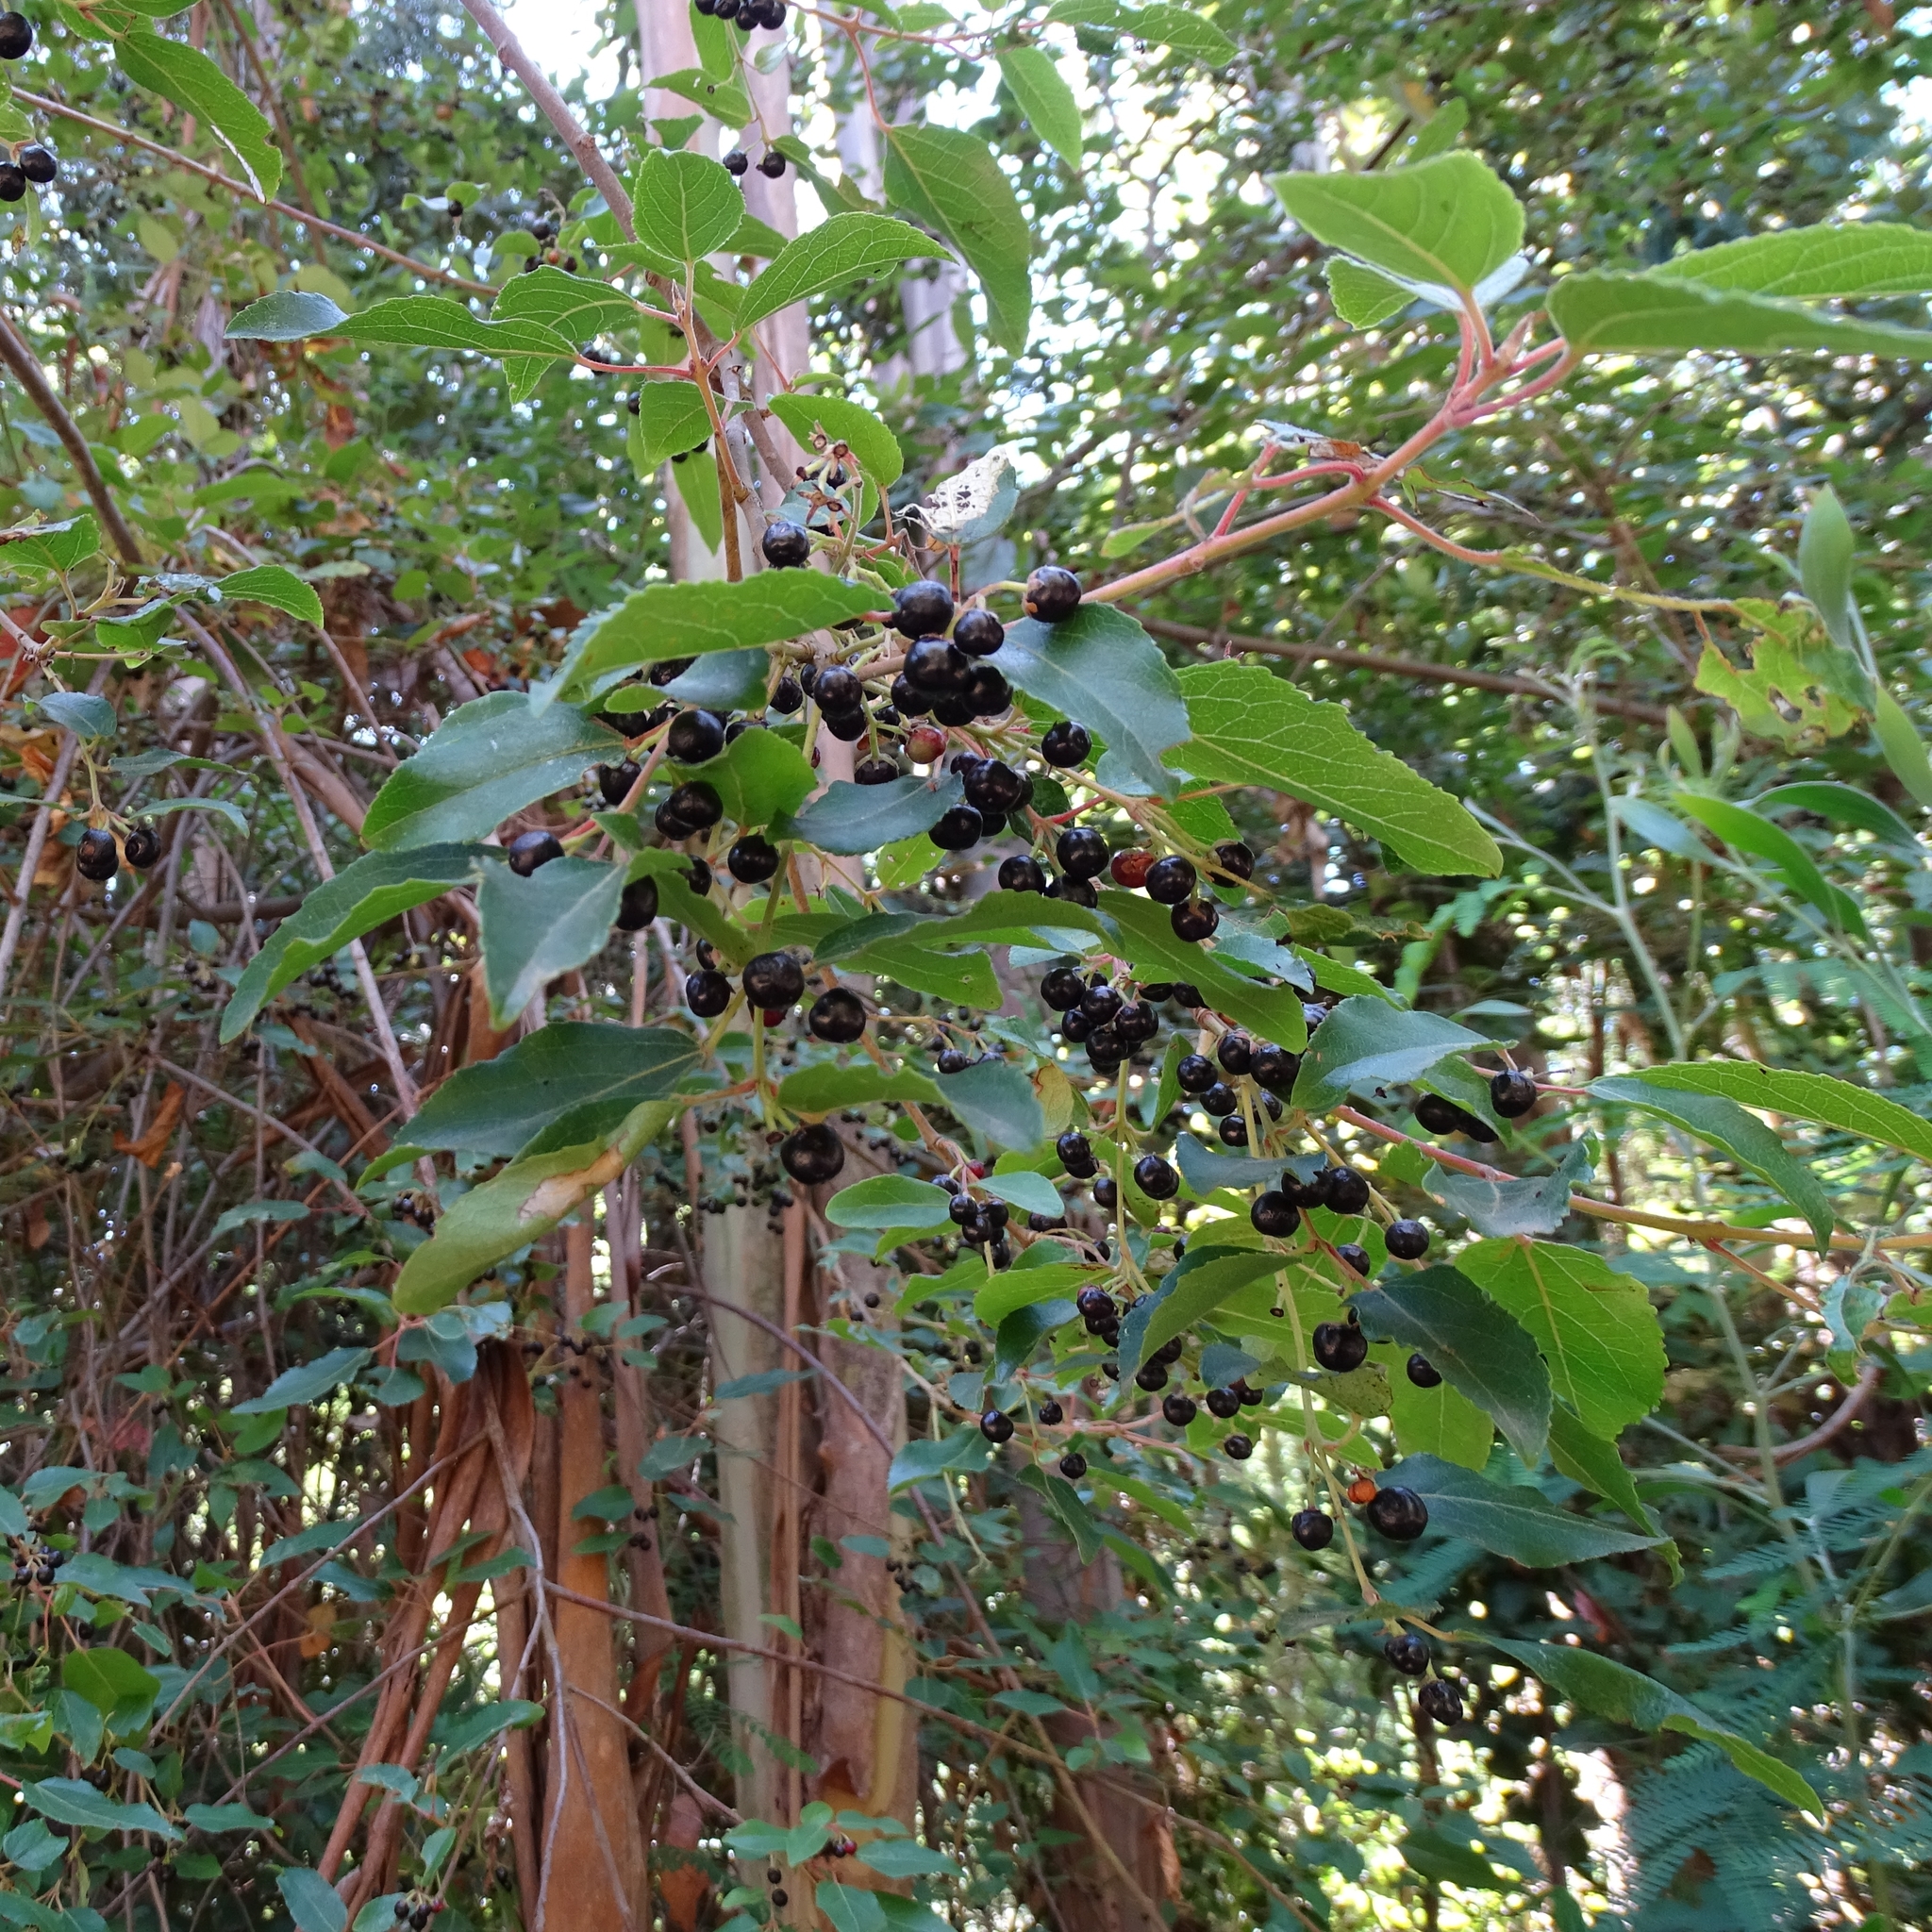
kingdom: Plantae
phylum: Tracheophyta
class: Magnoliopsida
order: Oxalidales
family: Elaeocarpaceae
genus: Aristotelia
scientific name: Aristotelia chilensis
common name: Maquei
